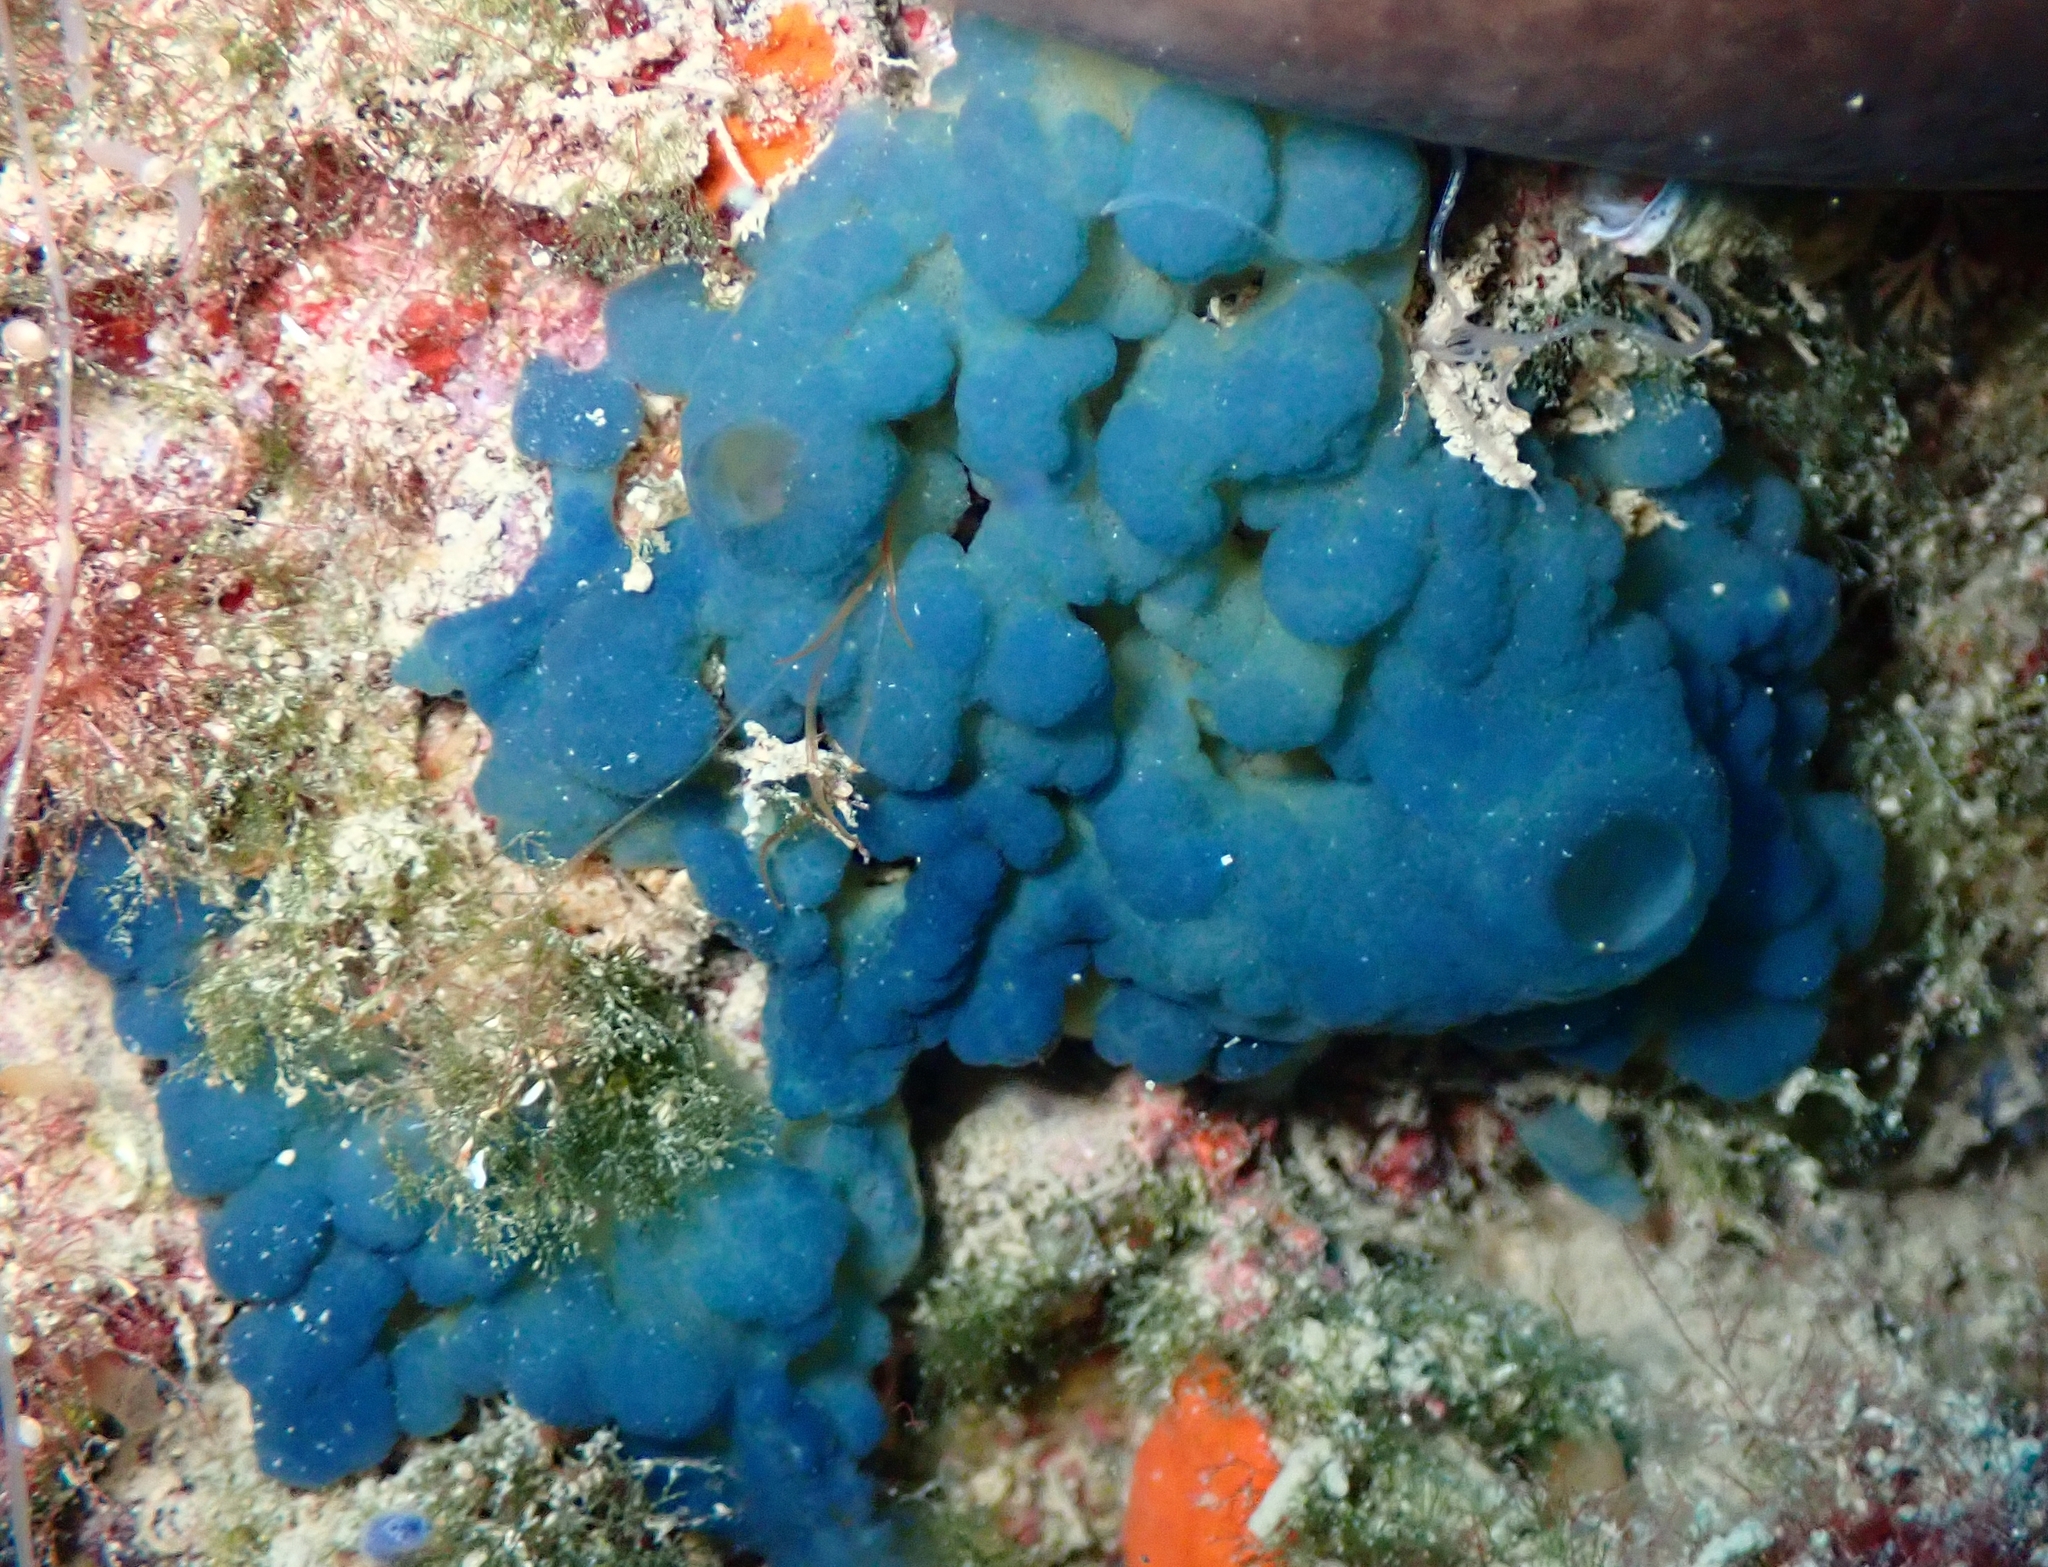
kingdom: Animalia
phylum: Porifera
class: Homoscleromorpha
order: Homosclerophorida
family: Oscarellidae
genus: Oscarella
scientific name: Oscarella lobularis
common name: Flesh sponge
